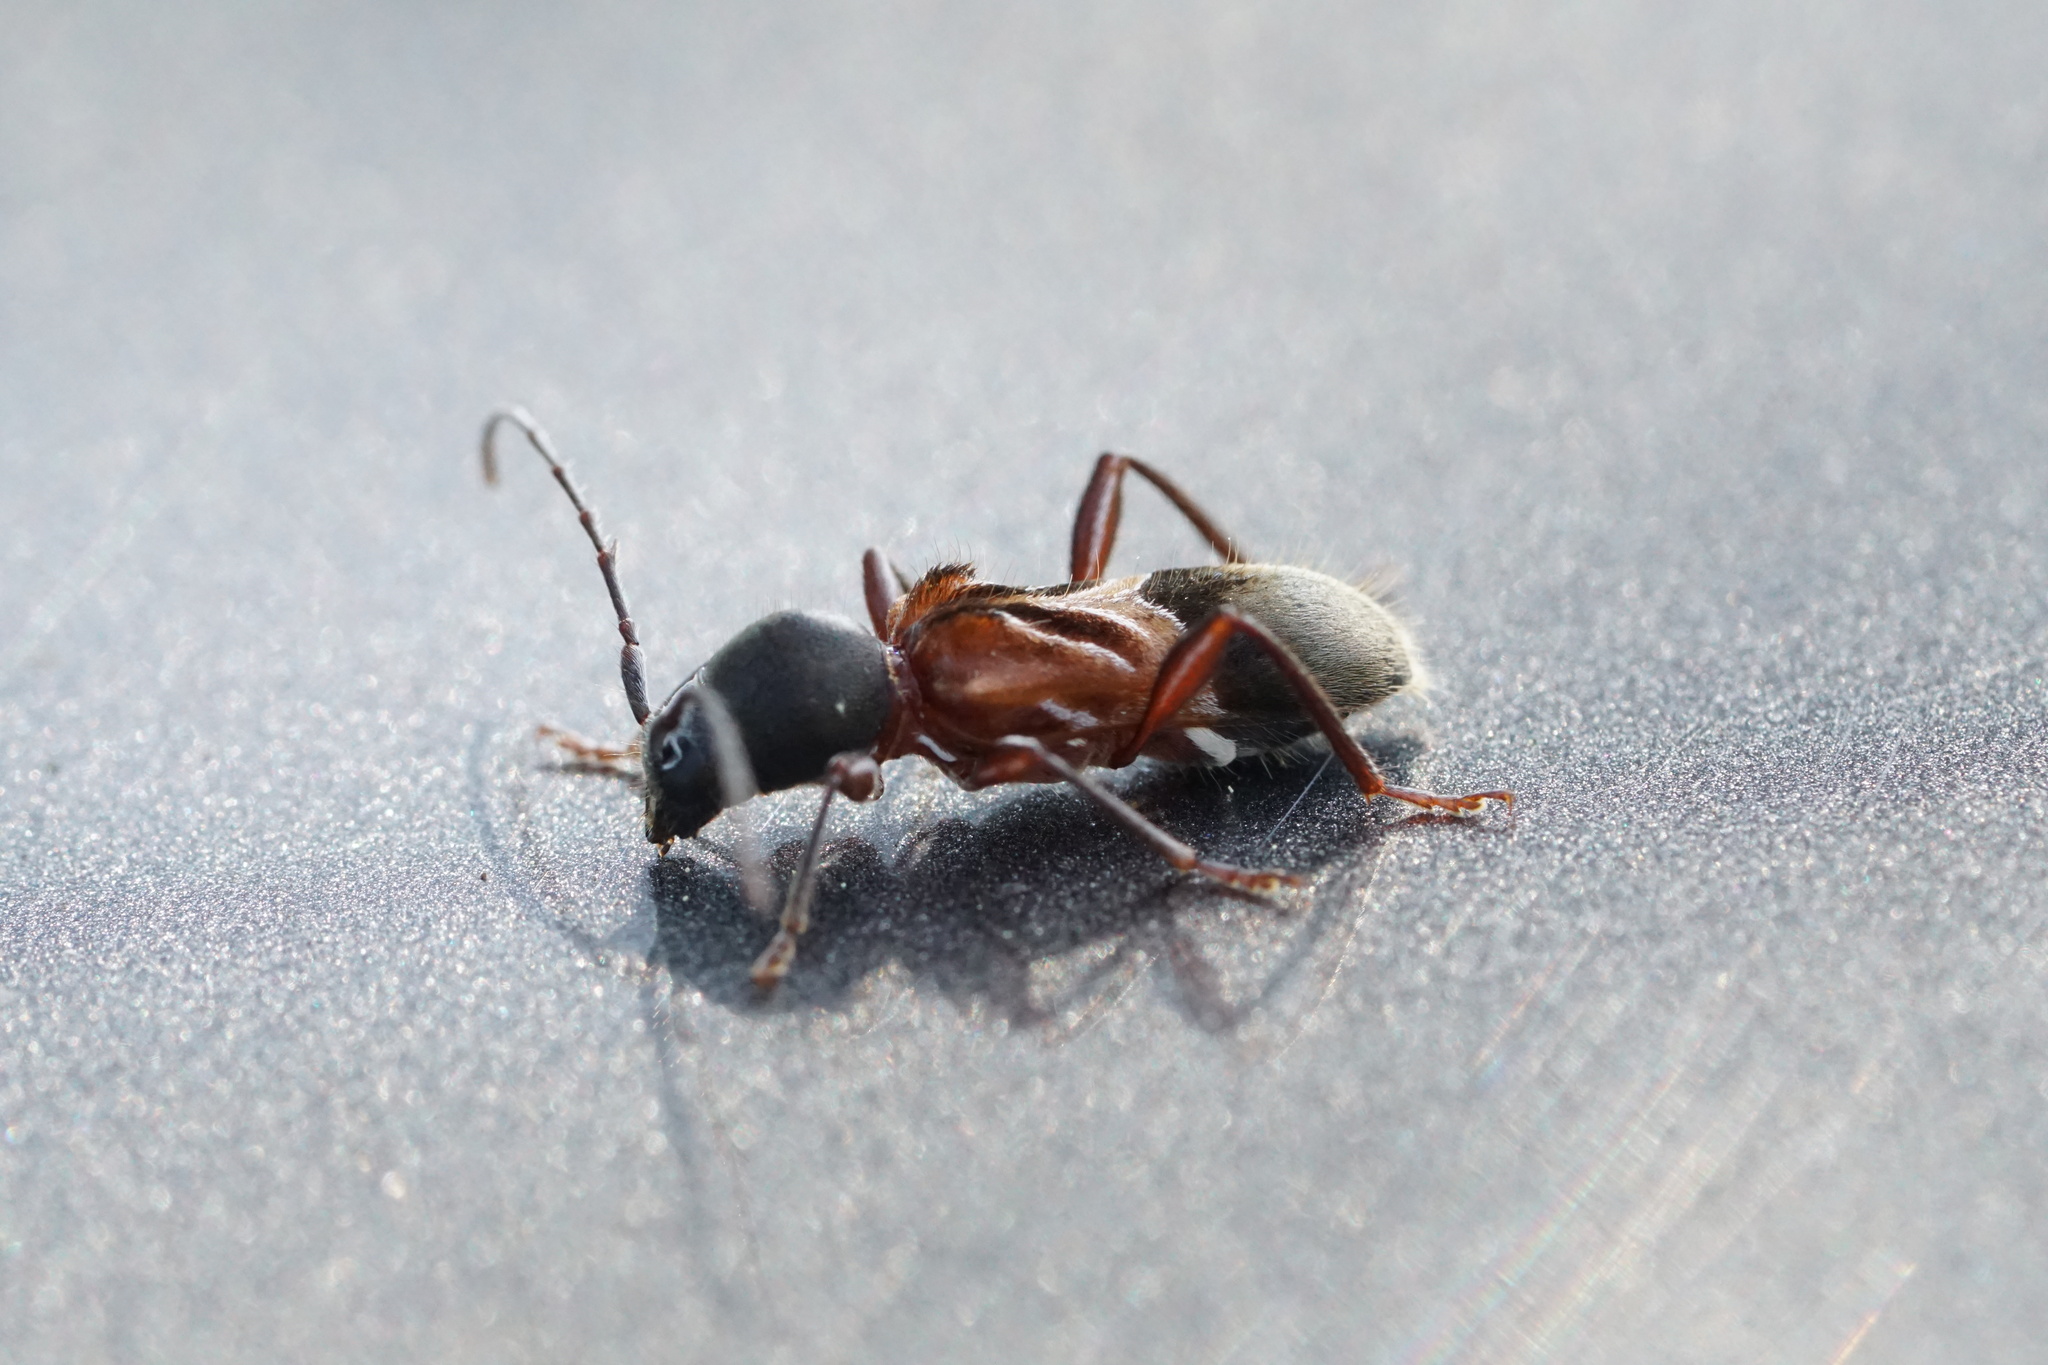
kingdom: Animalia
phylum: Arthropoda
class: Insecta
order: Coleoptera
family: Cerambycidae
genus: Cyrtophorus
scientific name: Cyrtophorus verrucosus
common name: Ant-like longhorn beetle
